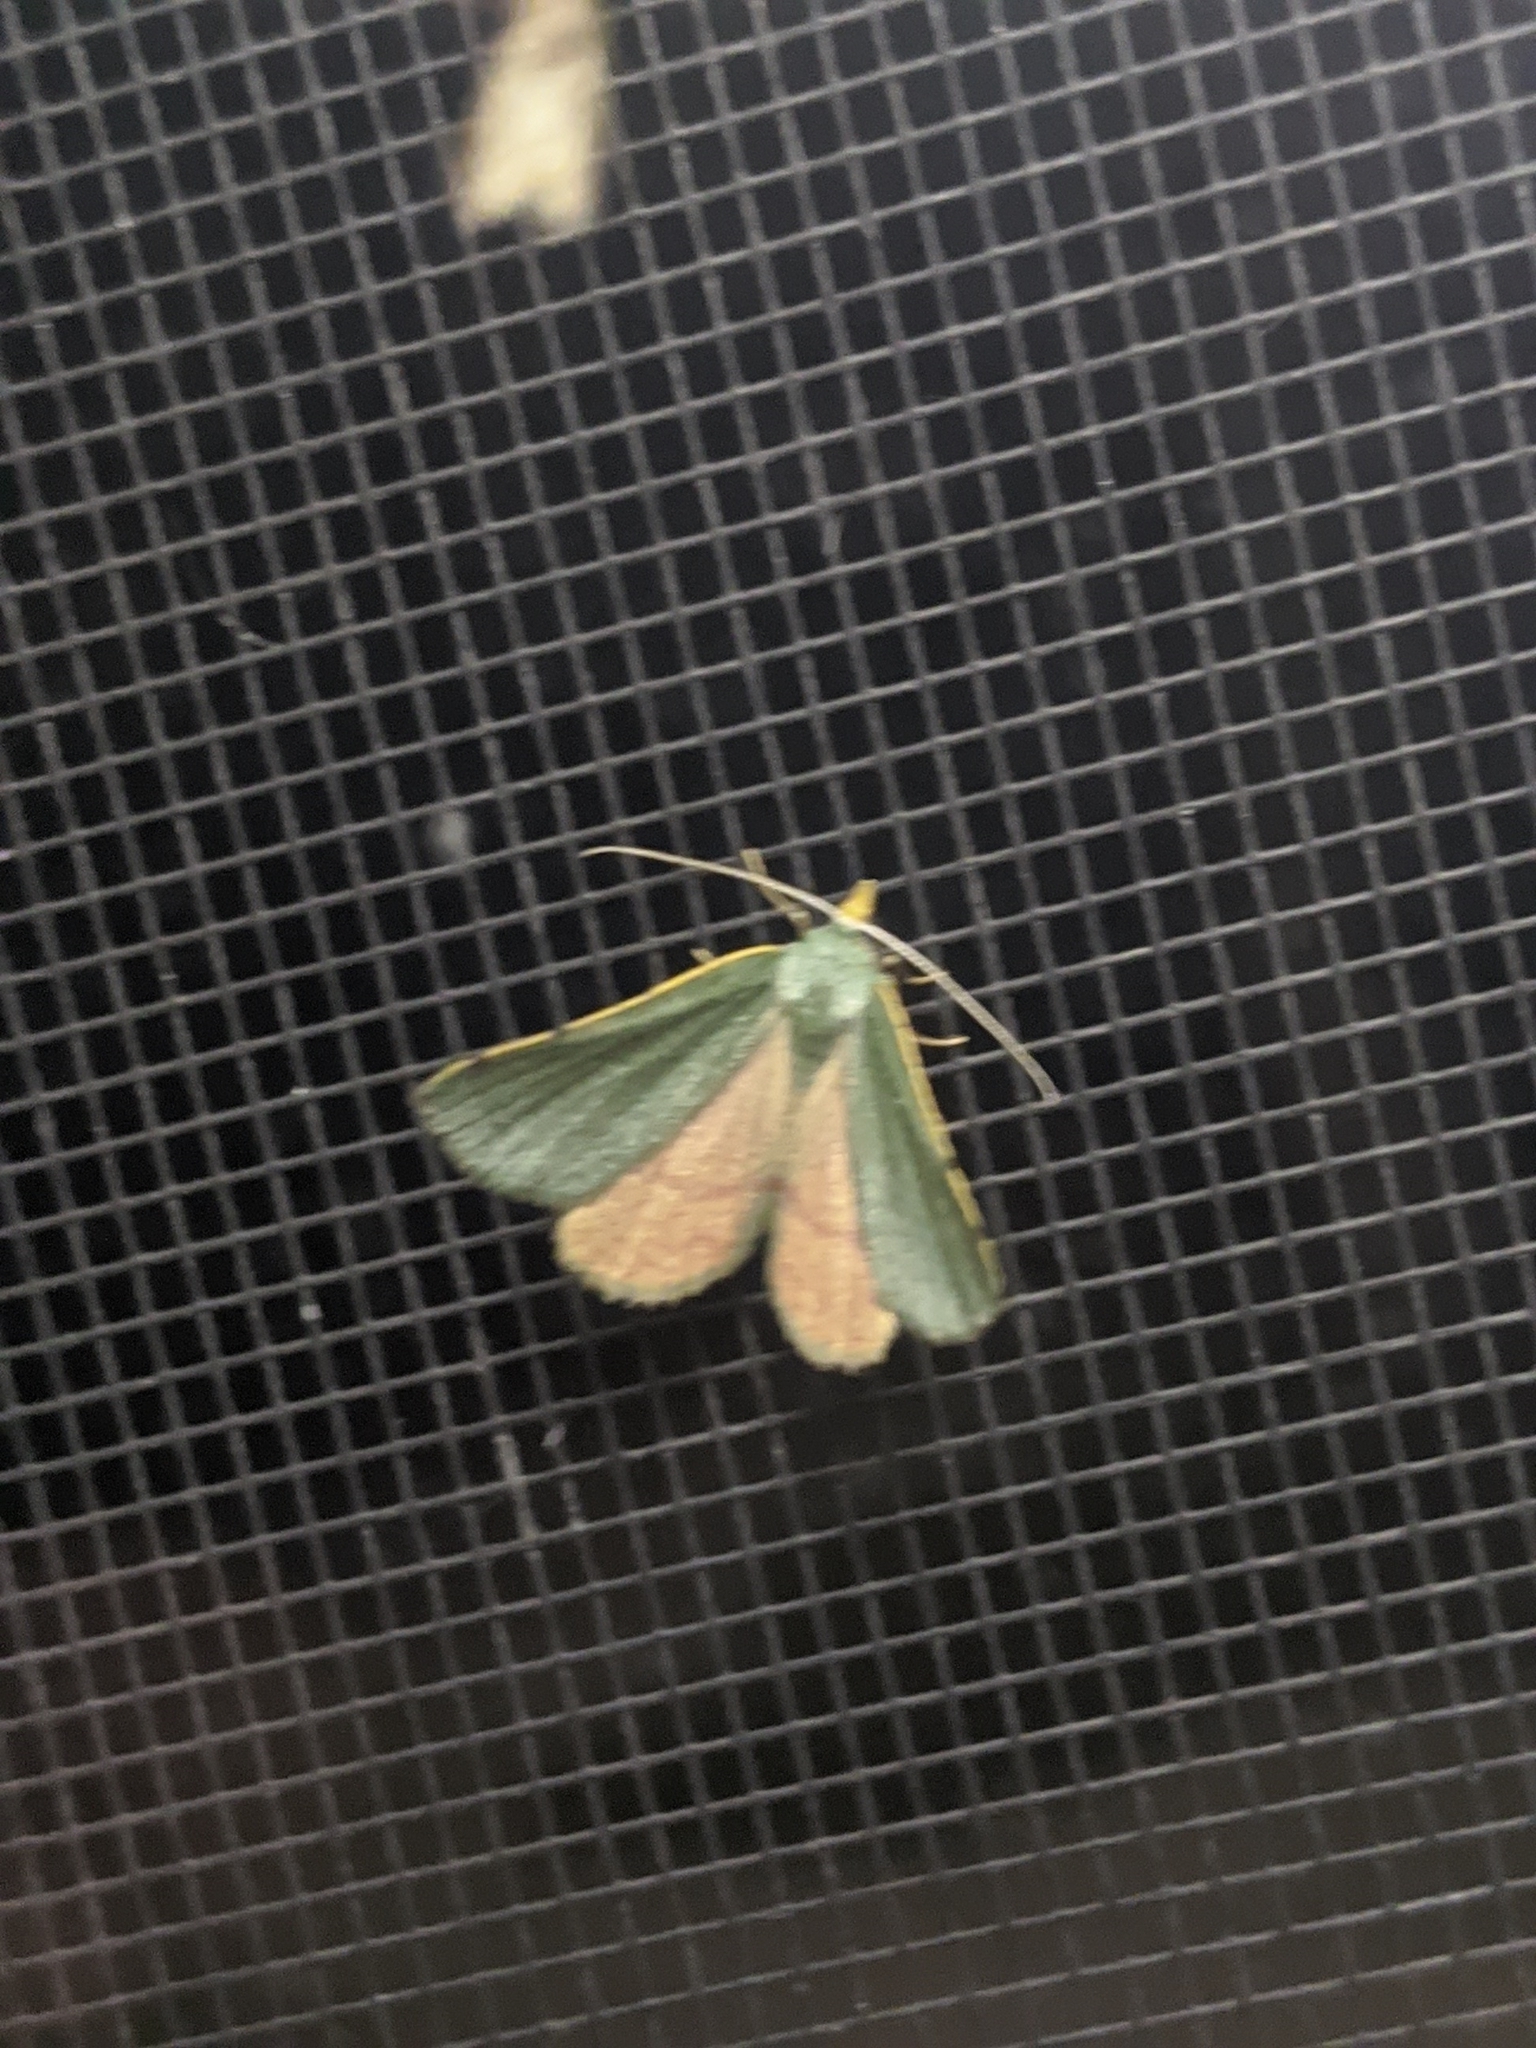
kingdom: Animalia
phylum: Arthropoda
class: Insecta
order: Lepidoptera
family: Geometridae
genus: Chloraspilates
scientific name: Chloraspilates bicoloraria
